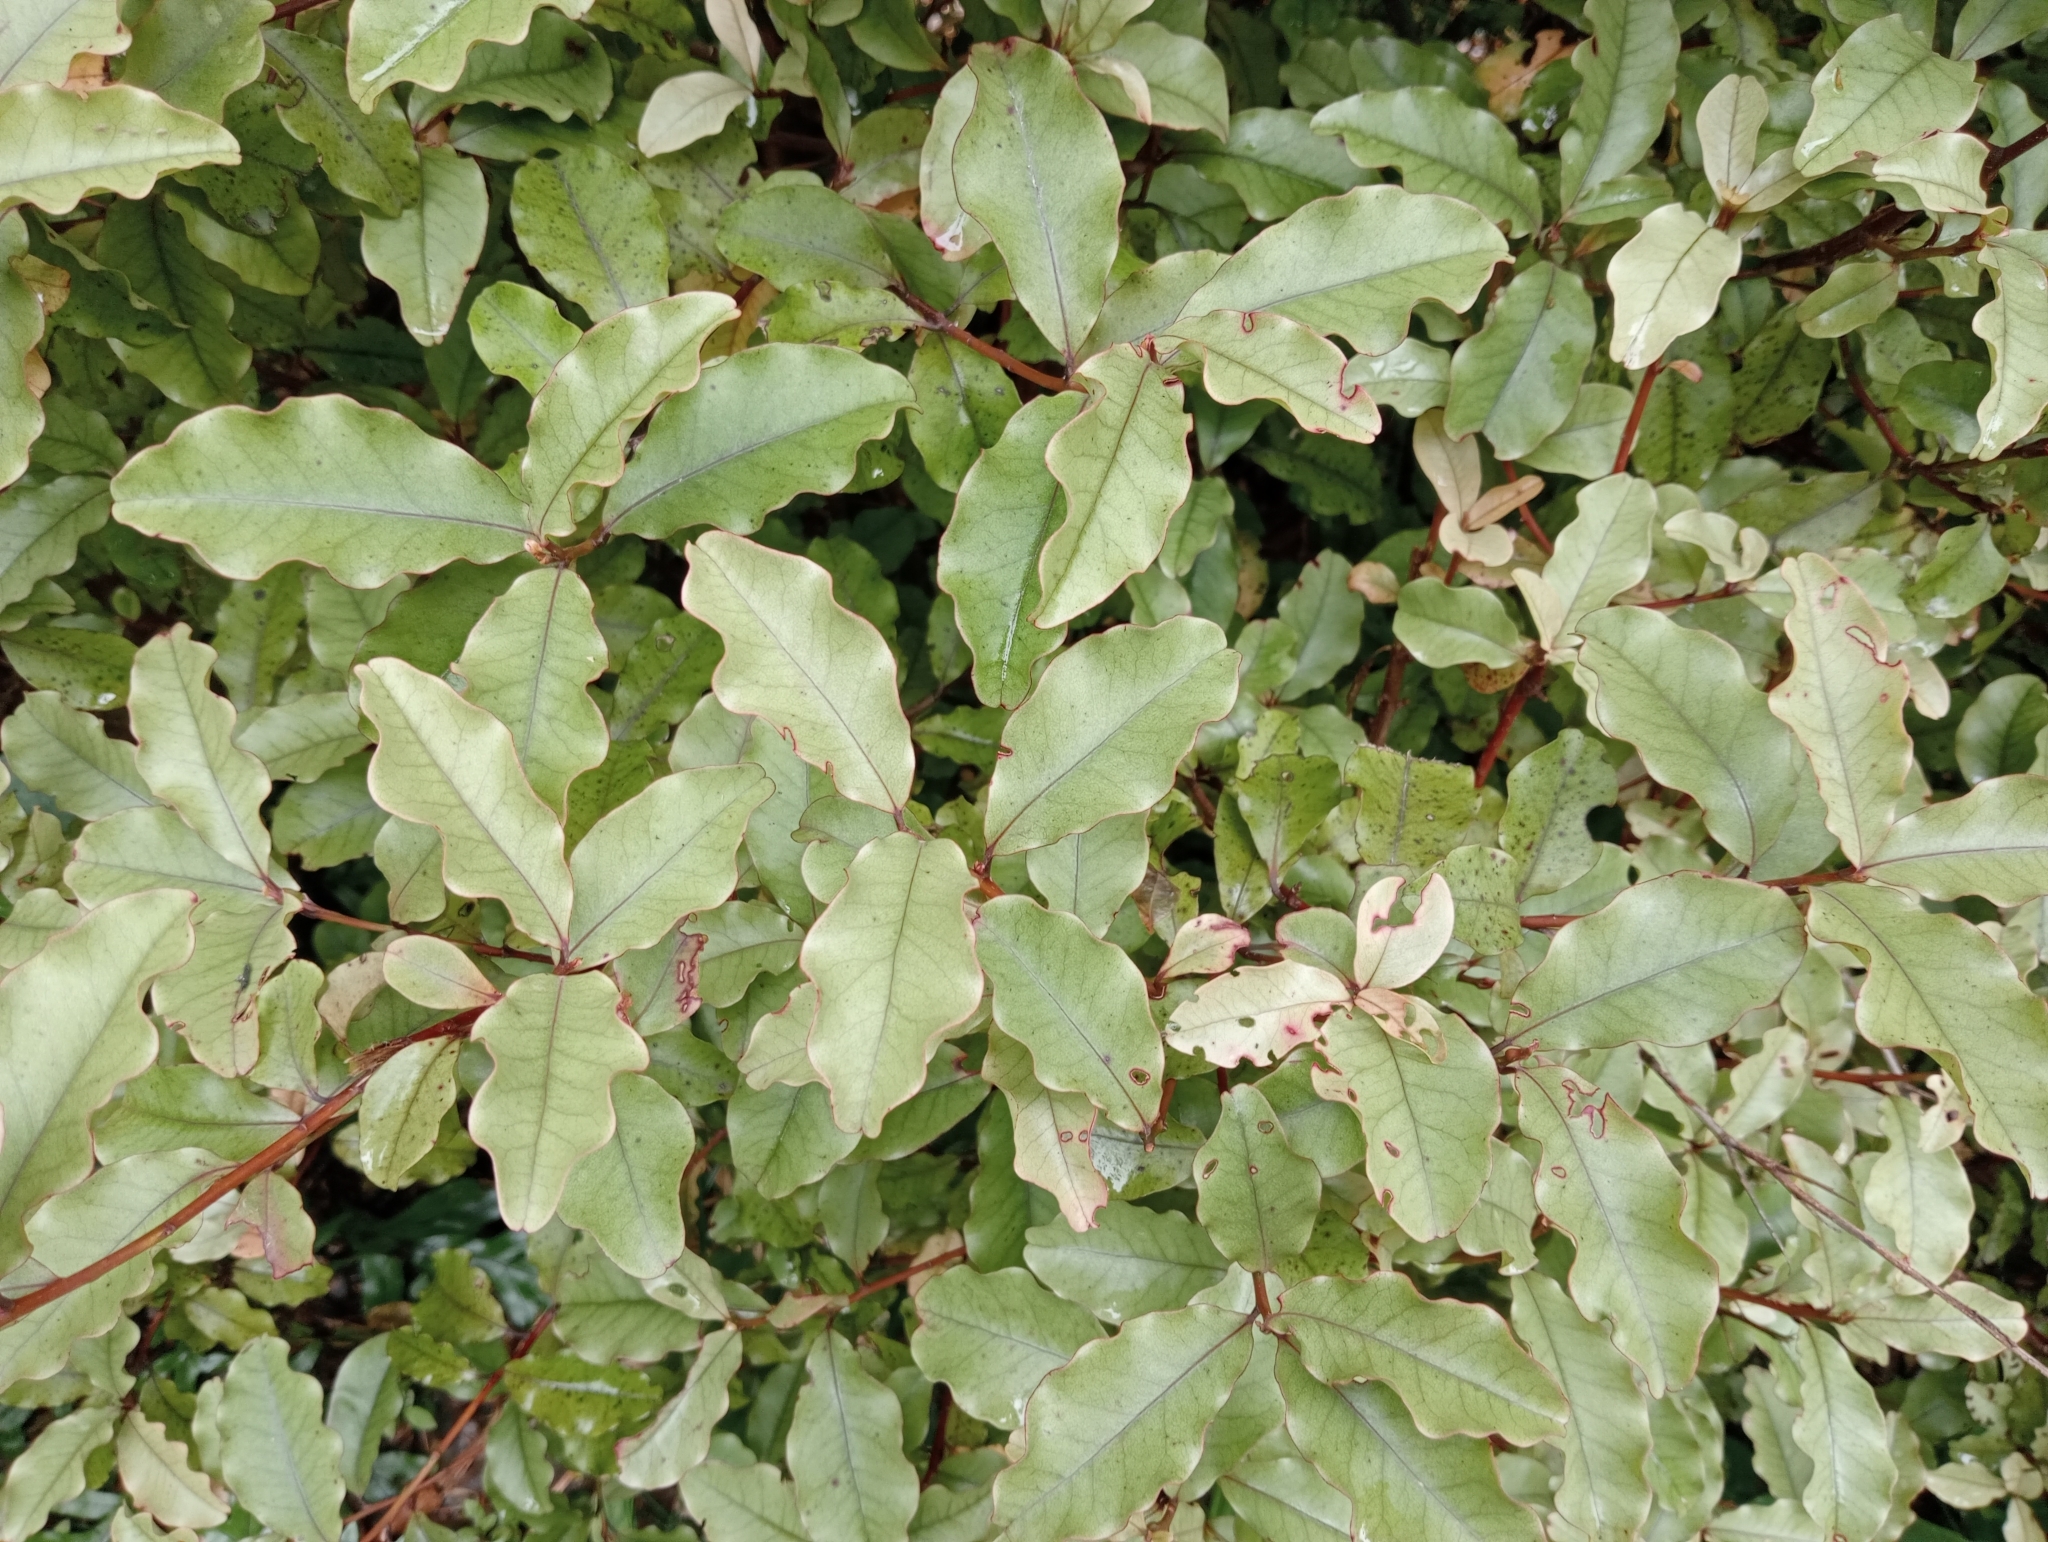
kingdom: Plantae
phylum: Tracheophyta
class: Magnoliopsida
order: Ericales
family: Primulaceae
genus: Myrsine
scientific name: Myrsine australis
